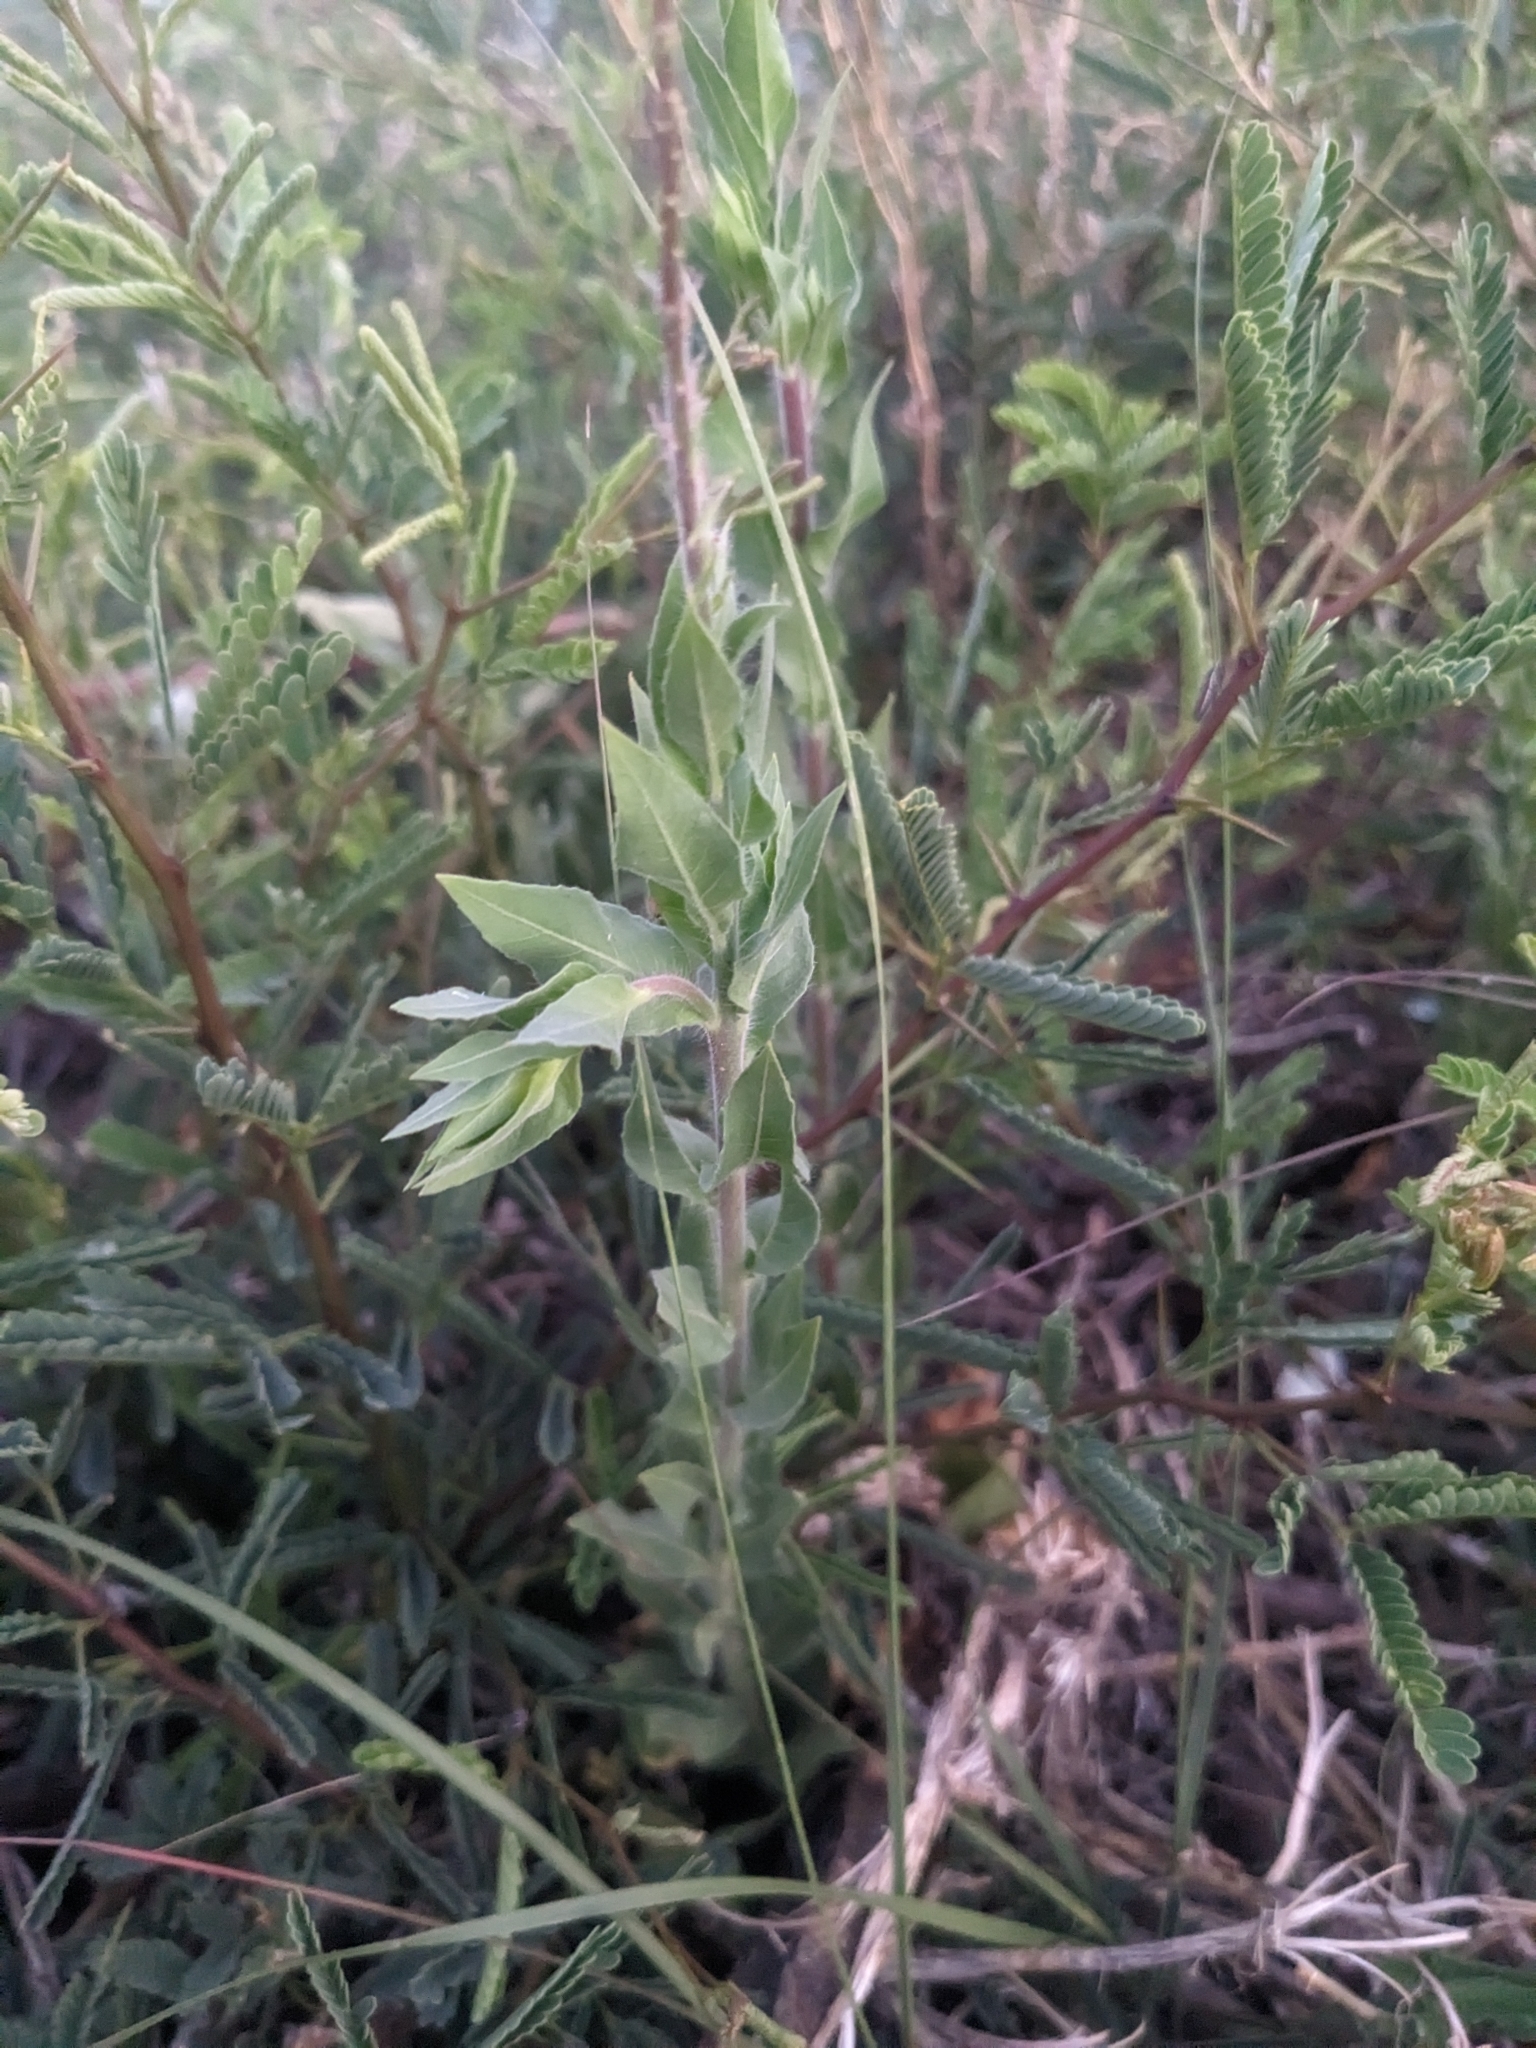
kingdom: Plantae
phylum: Tracheophyta
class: Magnoliopsida
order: Myrtales
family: Onagraceae
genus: Oenothera
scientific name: Oenothera curtiflora
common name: Velvetweed
